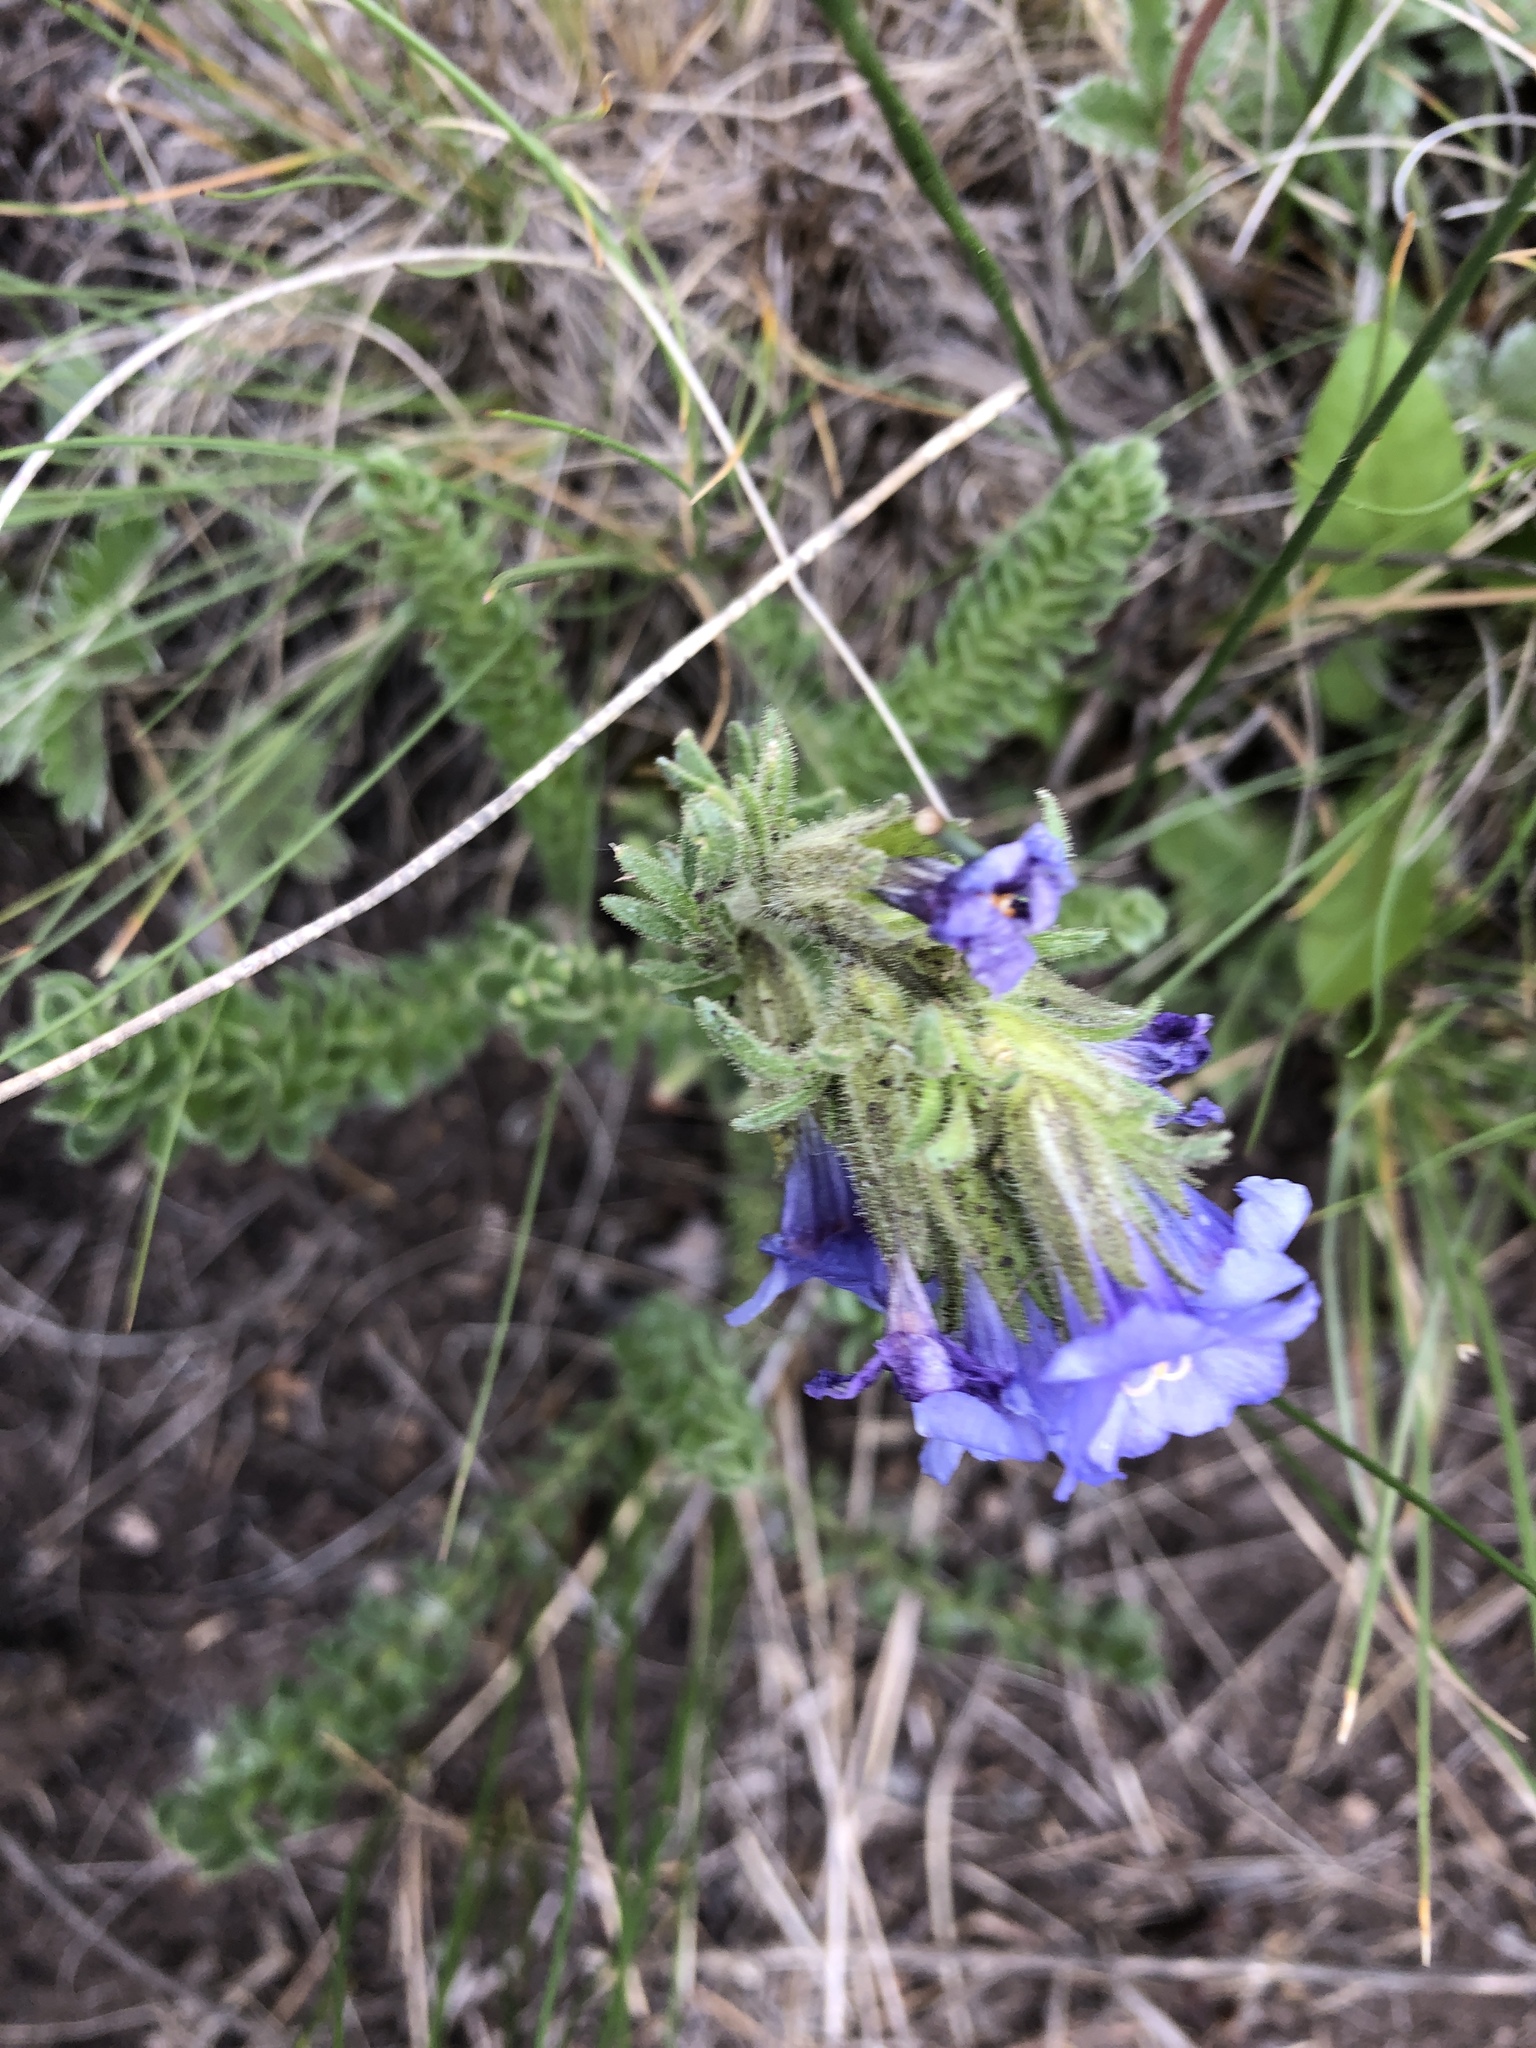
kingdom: Plantae
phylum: Tracheophyta
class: Magnoliopsida
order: Ericales
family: Polemoniaceae
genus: Polemonium
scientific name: Polemonium viscosum
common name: Skunk jacob's-ladder
